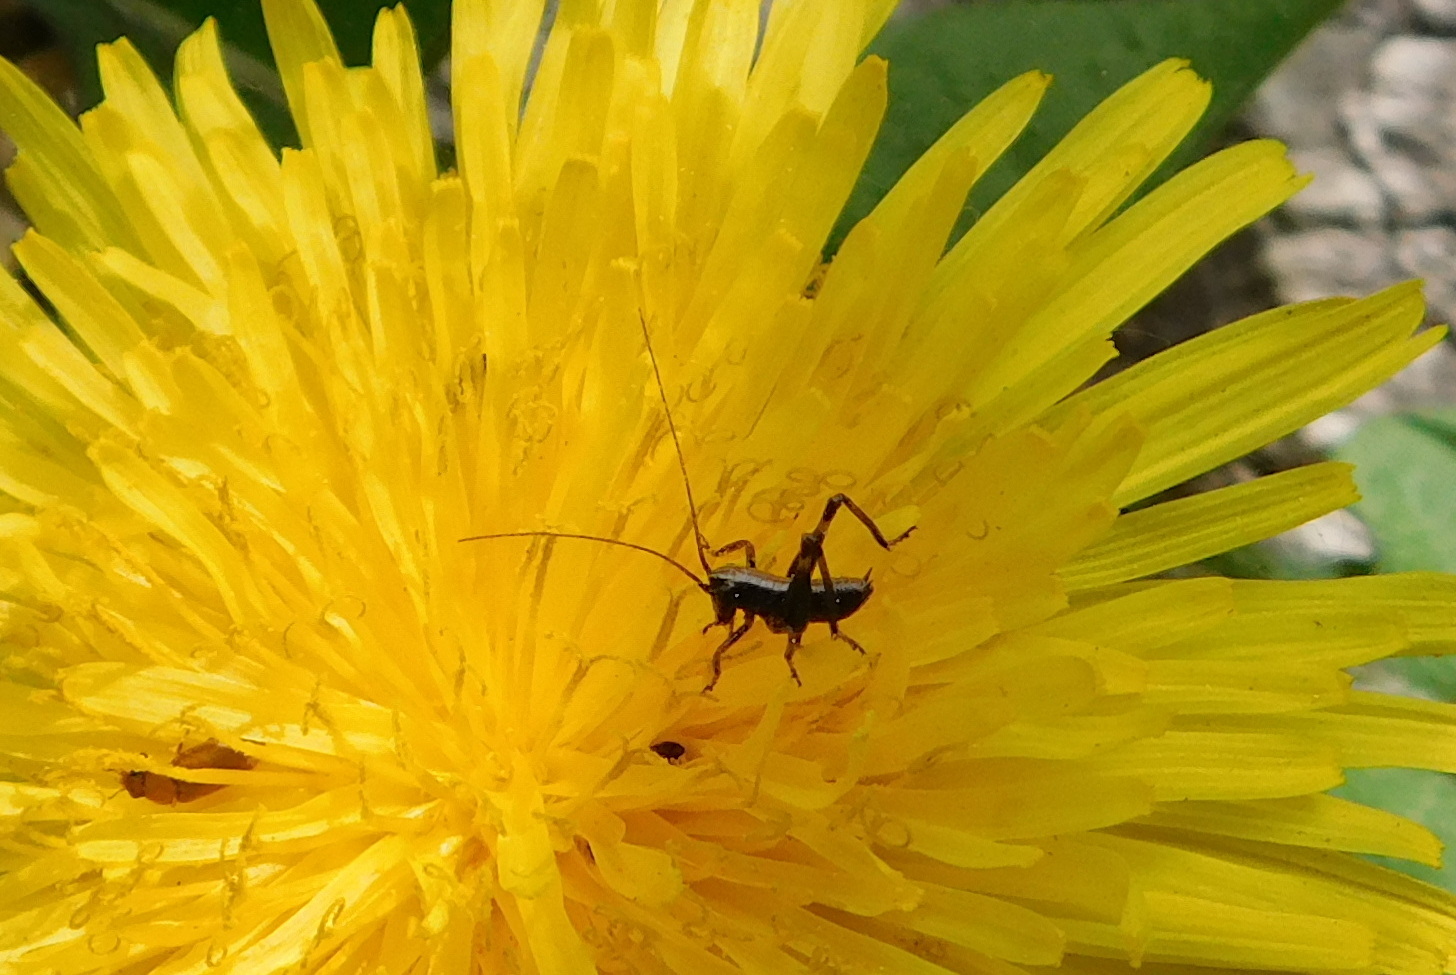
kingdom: Animalia
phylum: Arthropoda
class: Insecta
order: Orthoptera
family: Tettigoniidae
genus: Pholidoptera
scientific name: Pholidoptera griseoaptera
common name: Dark bush-cricket
